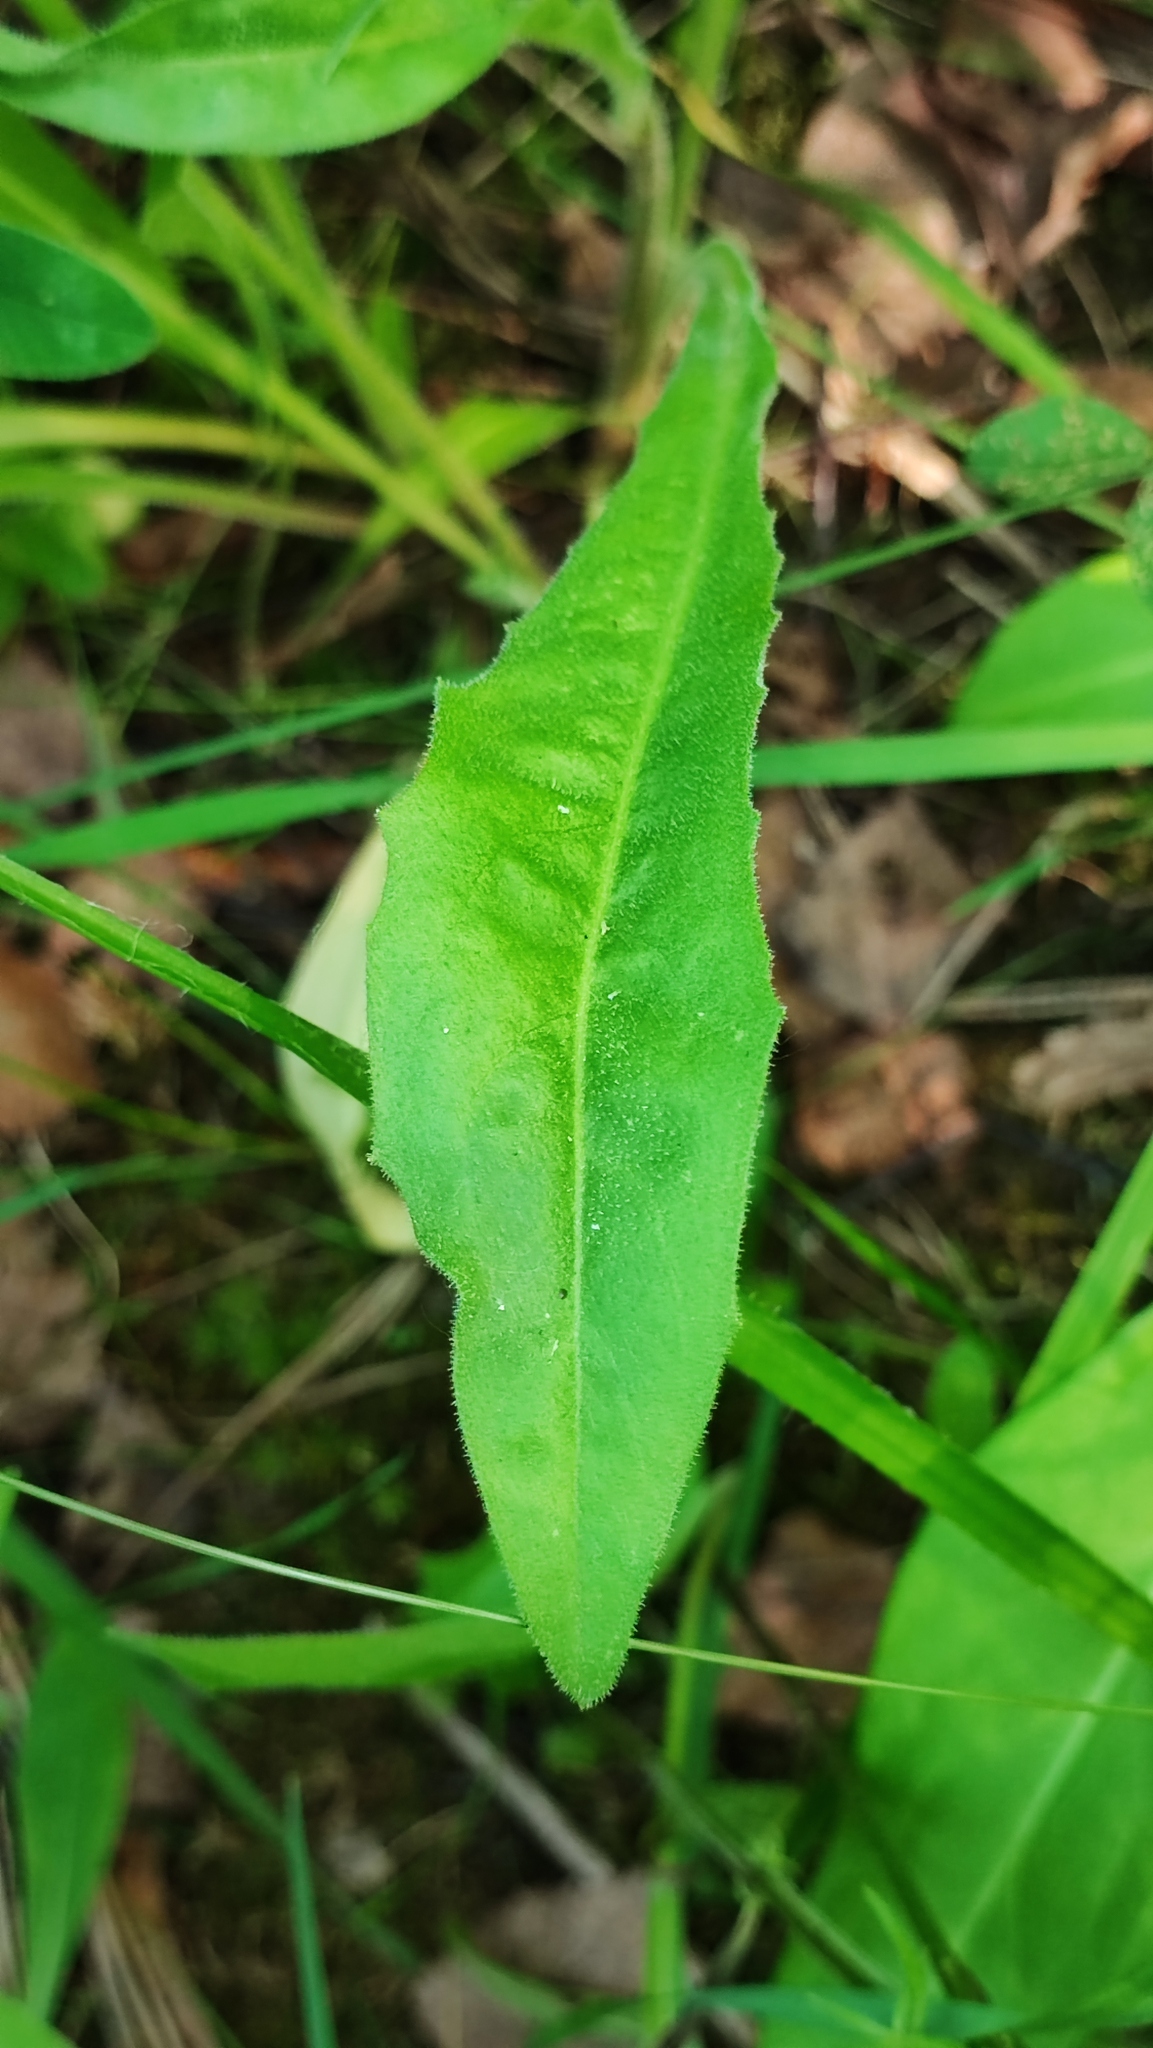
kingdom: Plantae
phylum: Tracheophyta
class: Magnoliopsida
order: Asterales
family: Asteraceae
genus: Leontodon
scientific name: Leontodon hispidus
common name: Rough hawkbit
